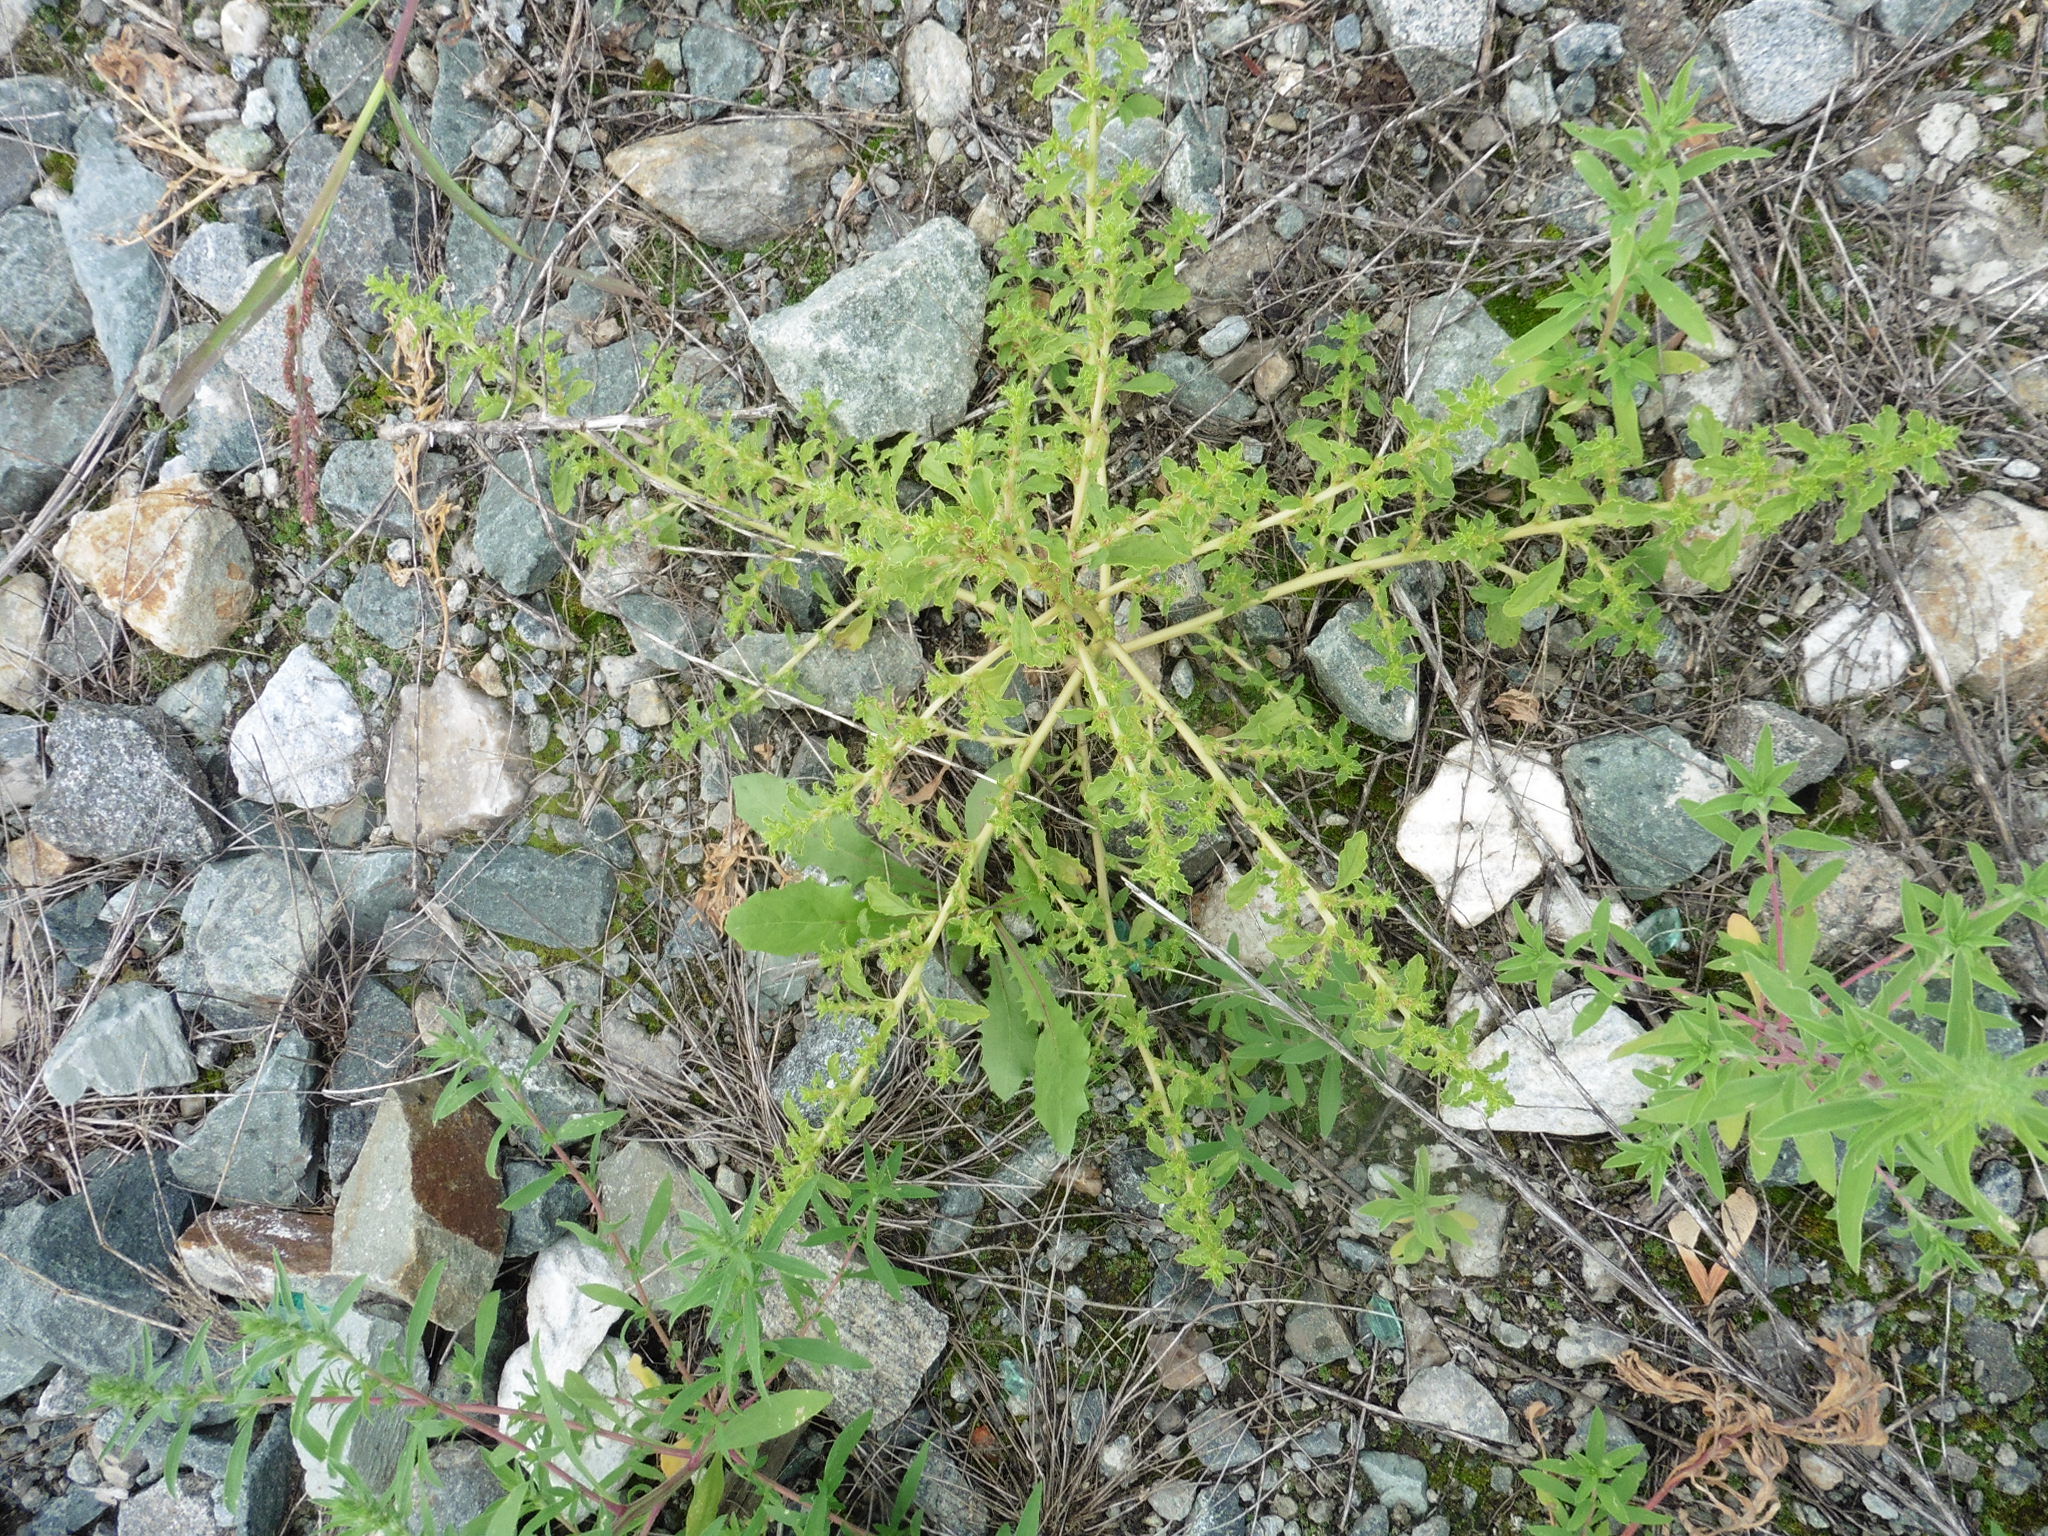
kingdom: Plantae
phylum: Tracheophyta
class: Magnoliopsida
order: Caryophyllales
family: Amaranthaceae
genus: Amaranthus
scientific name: Amaranthus albus
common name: White pigweed
